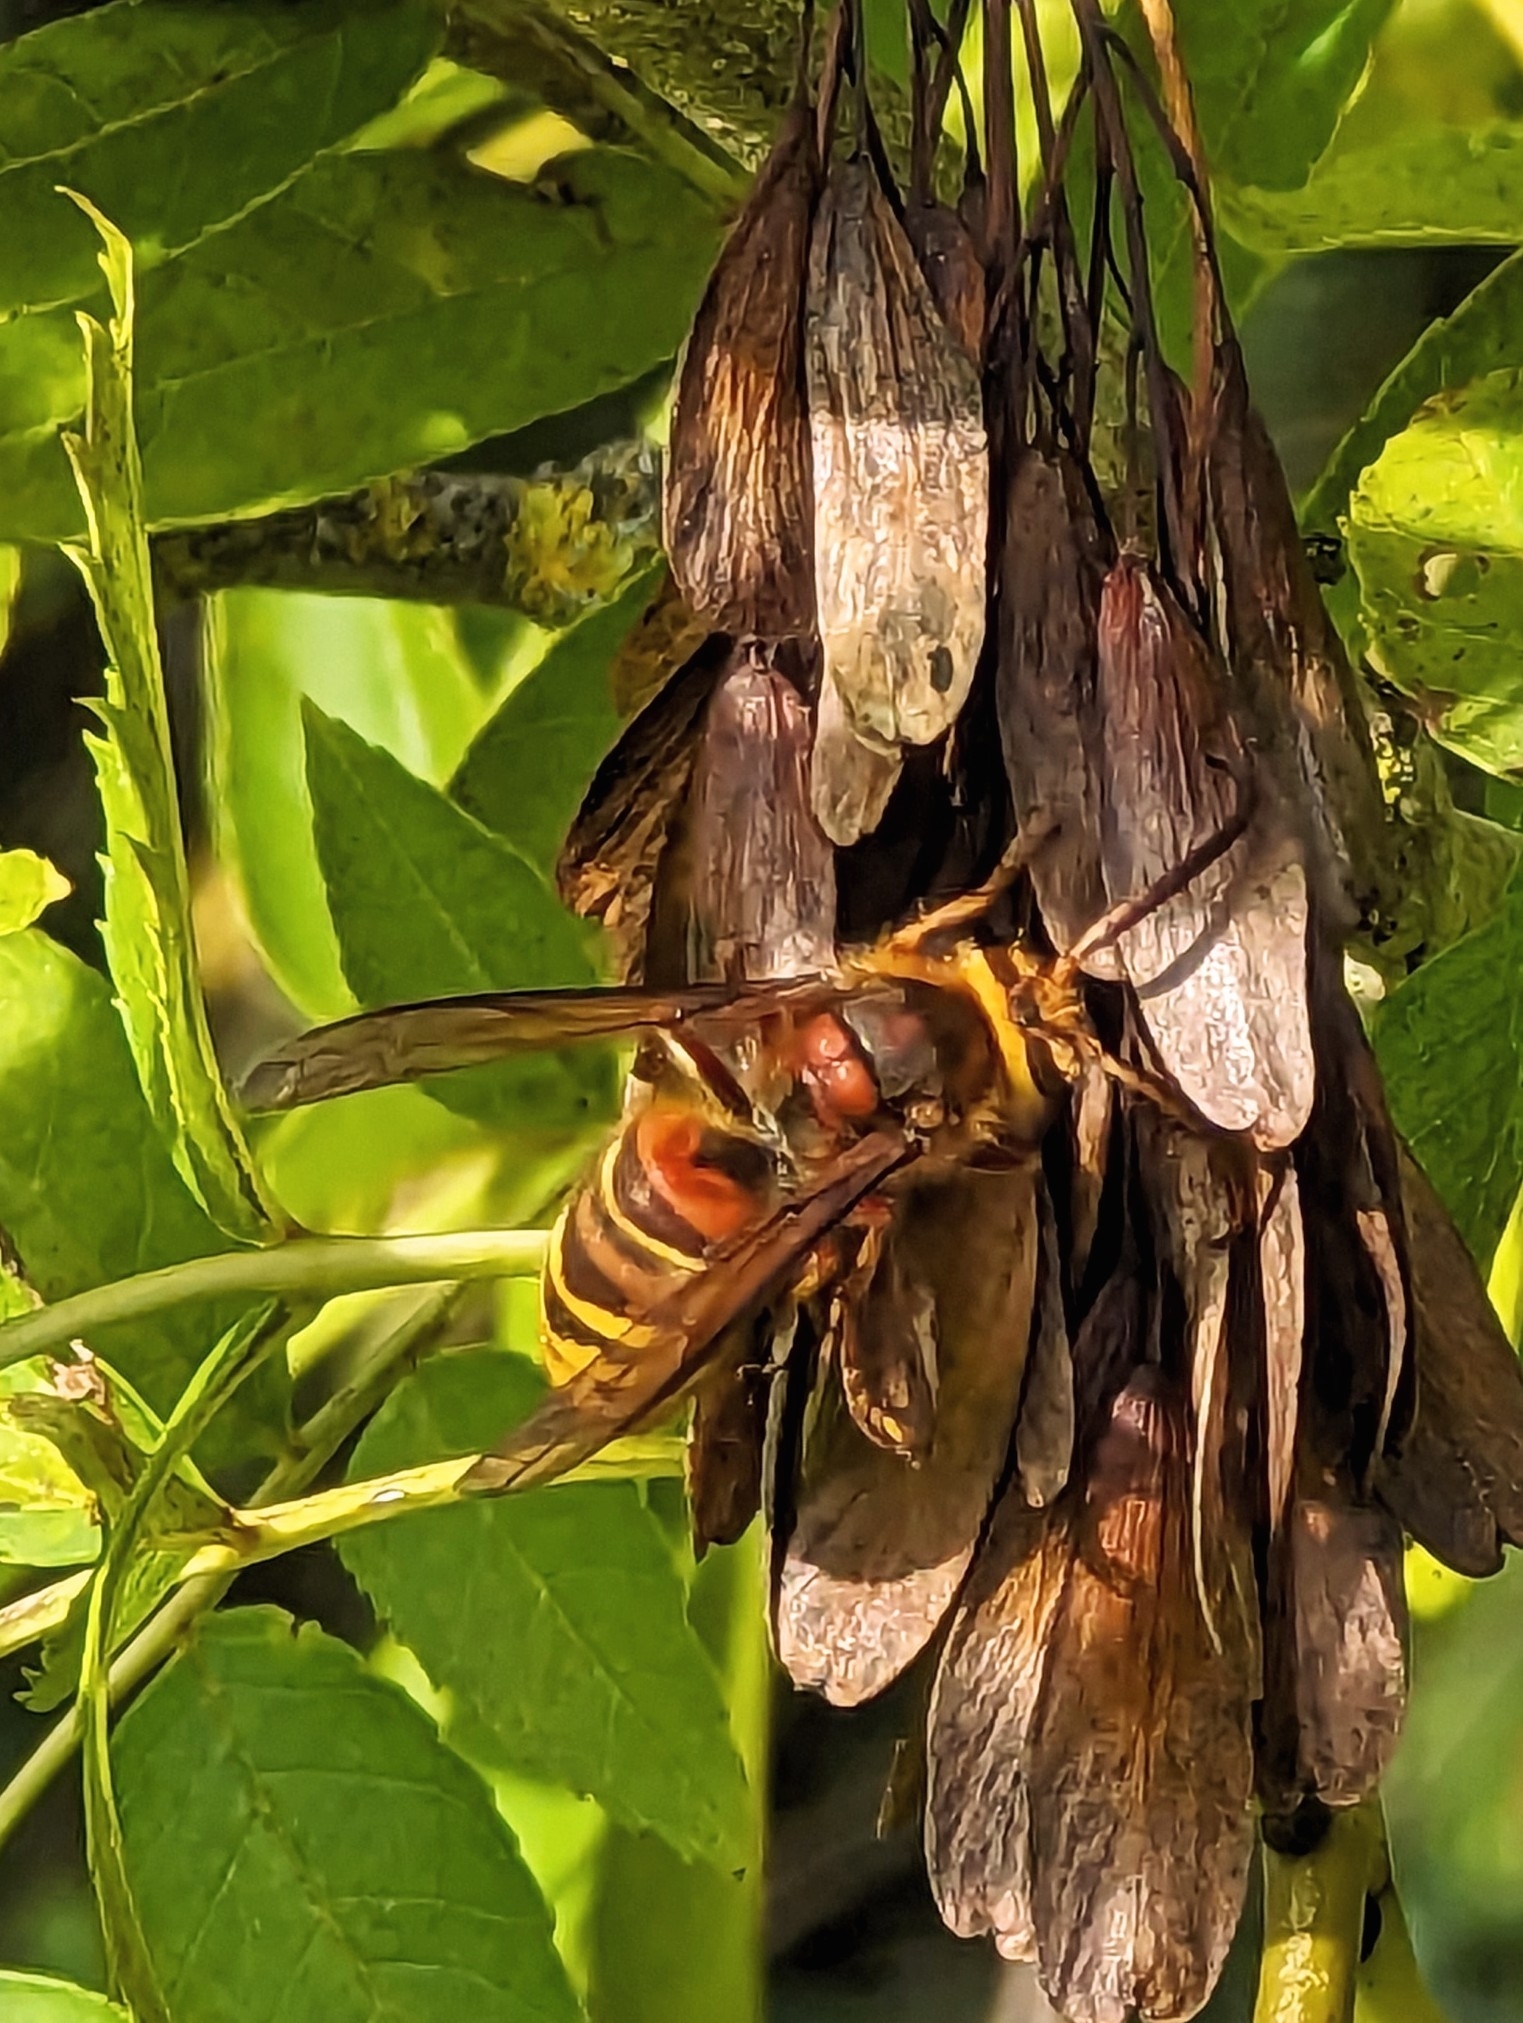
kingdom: Animalia
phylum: Arthropoda
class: Insecta
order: Hymenoptera
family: Vespidae
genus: Vespa
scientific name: Vespa crabro
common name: Hornet
